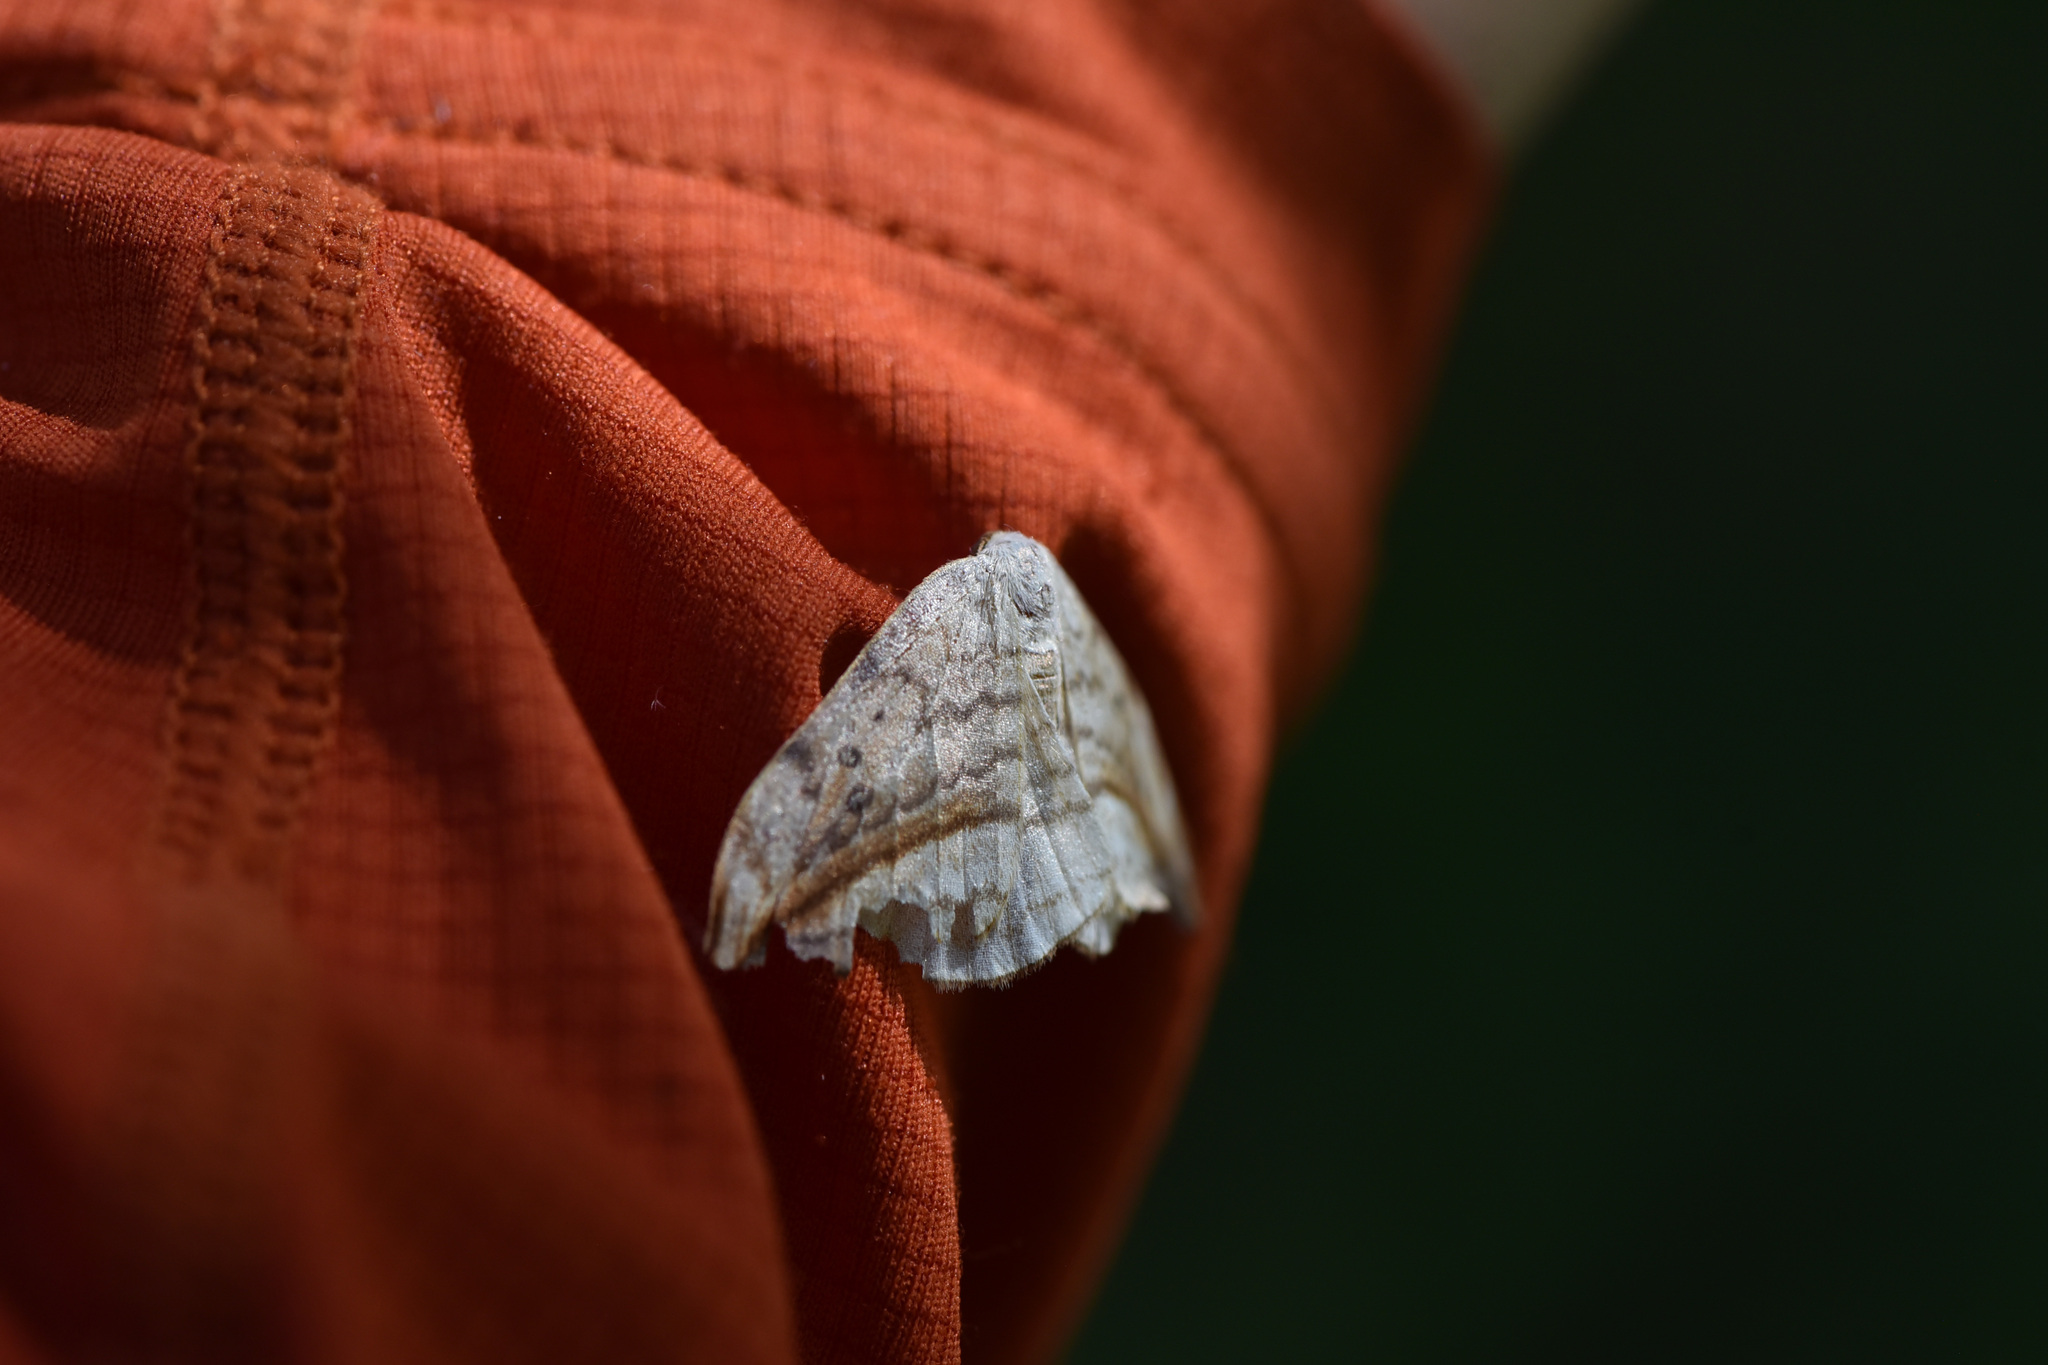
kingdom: Animalia
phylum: Arthropoda
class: Insecta
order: Lepidoptera
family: Drepanidae
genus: Drepana
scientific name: Drepana arcuata
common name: Arched hooktip moth
